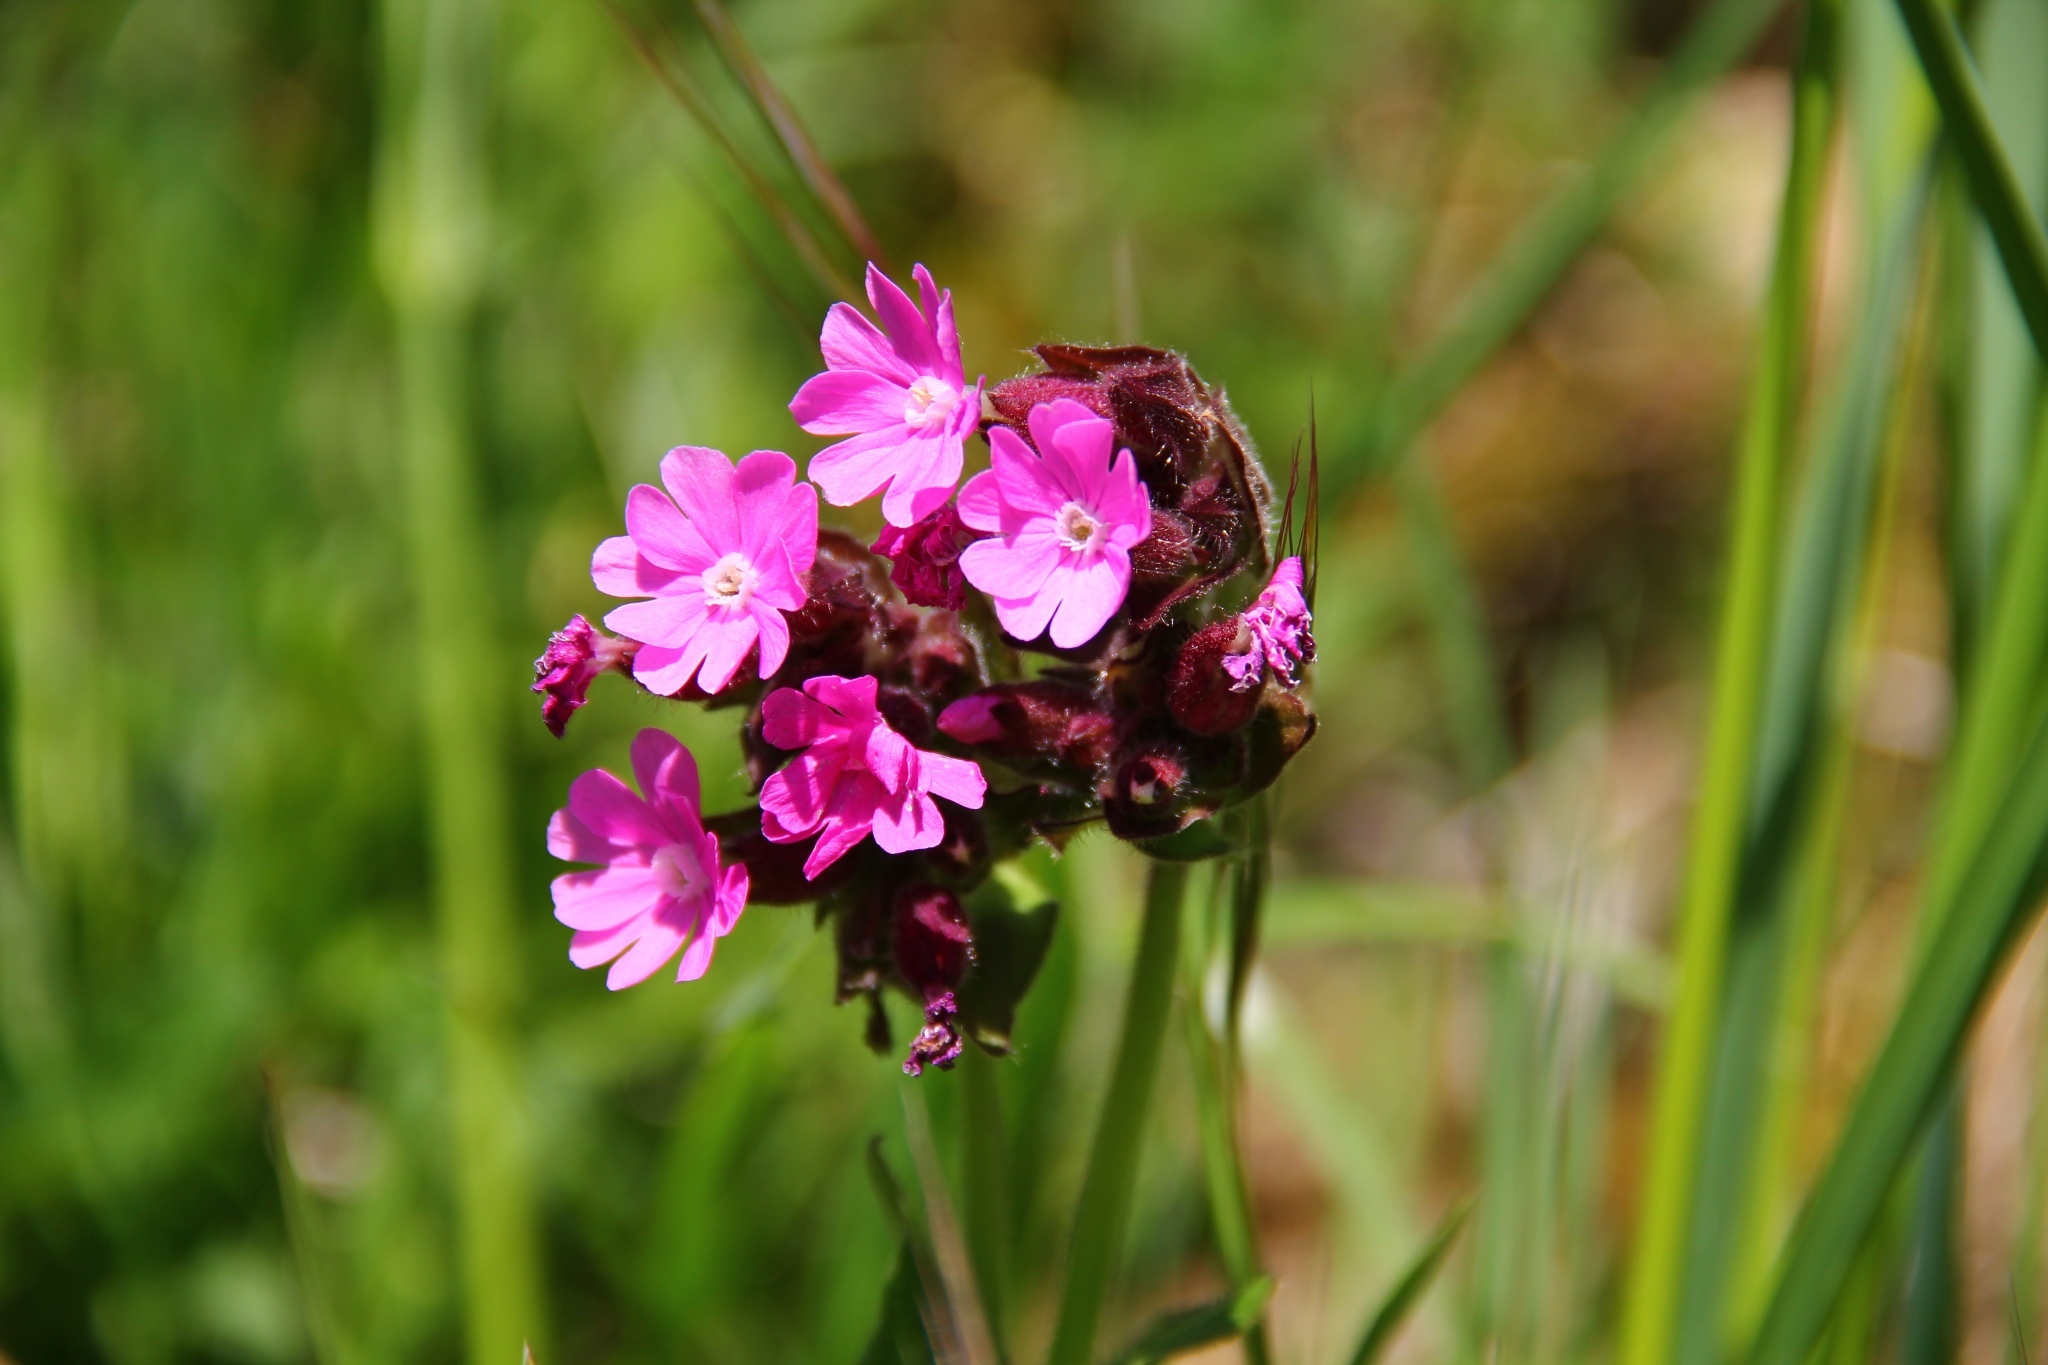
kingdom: Plantae
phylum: Tracheophyta
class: Magnoliopsida
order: Caryophyllales
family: Caryophyllaceae
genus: Silene
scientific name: Silene dioica
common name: Red campion
